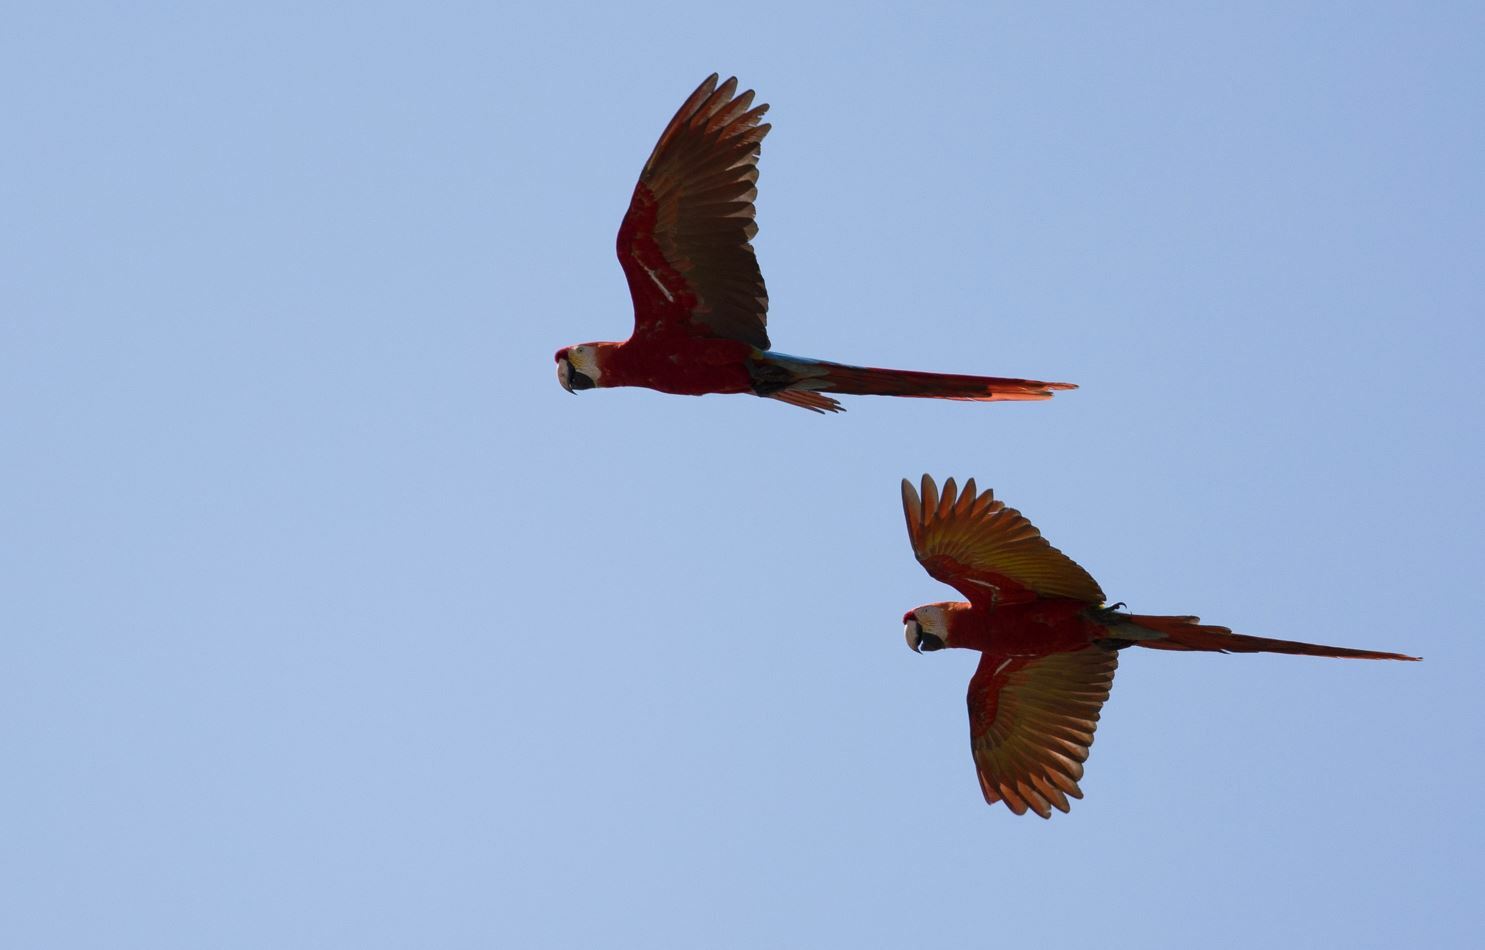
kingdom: Animalia
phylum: Chordata
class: Aves
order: Psittaciformes
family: Psittacidae
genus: Ara
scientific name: Ara chloropterus
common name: Red-and-green macaw
